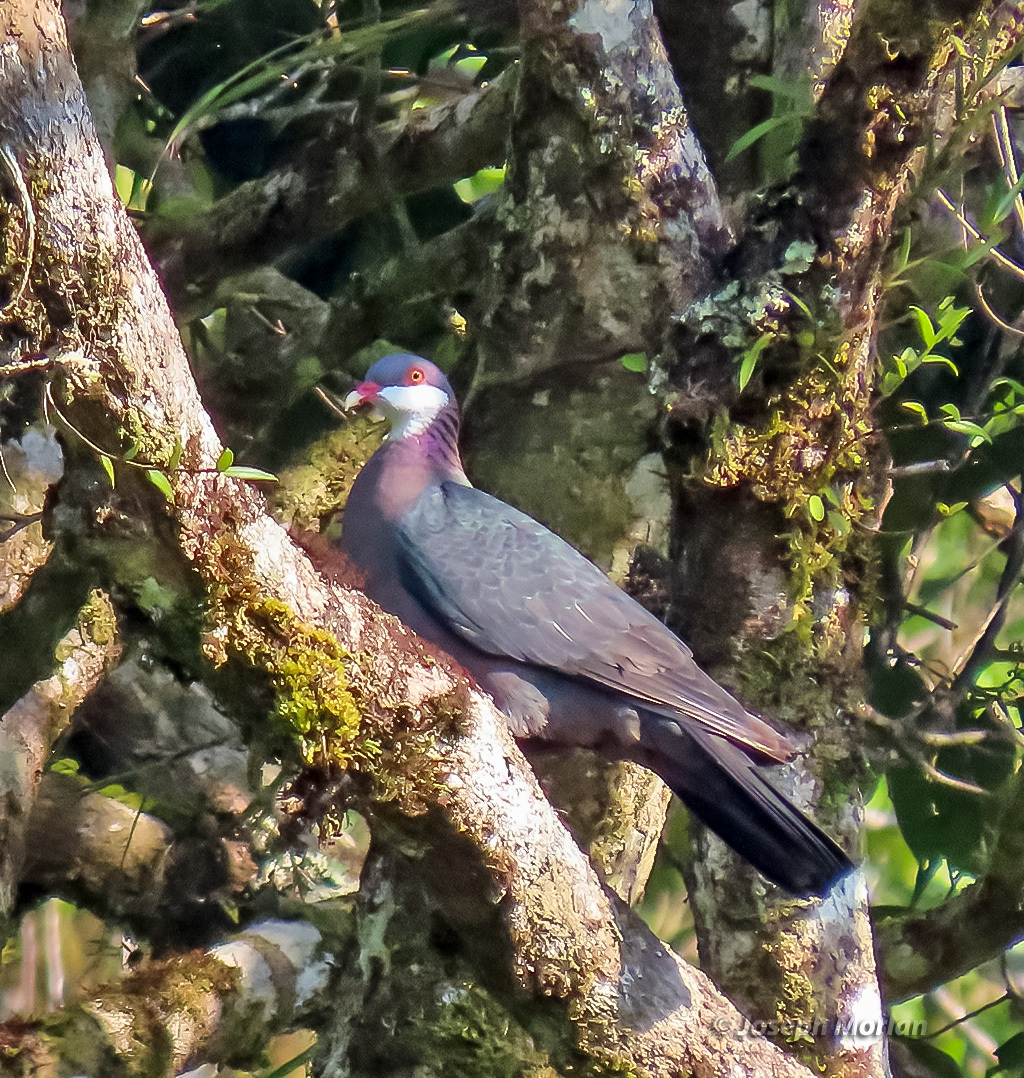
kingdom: Animalia
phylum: Chordata
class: Aves
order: Columbiformes
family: Columbidae
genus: Columba
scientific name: Columba vitiensis
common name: Metallic pigeon
